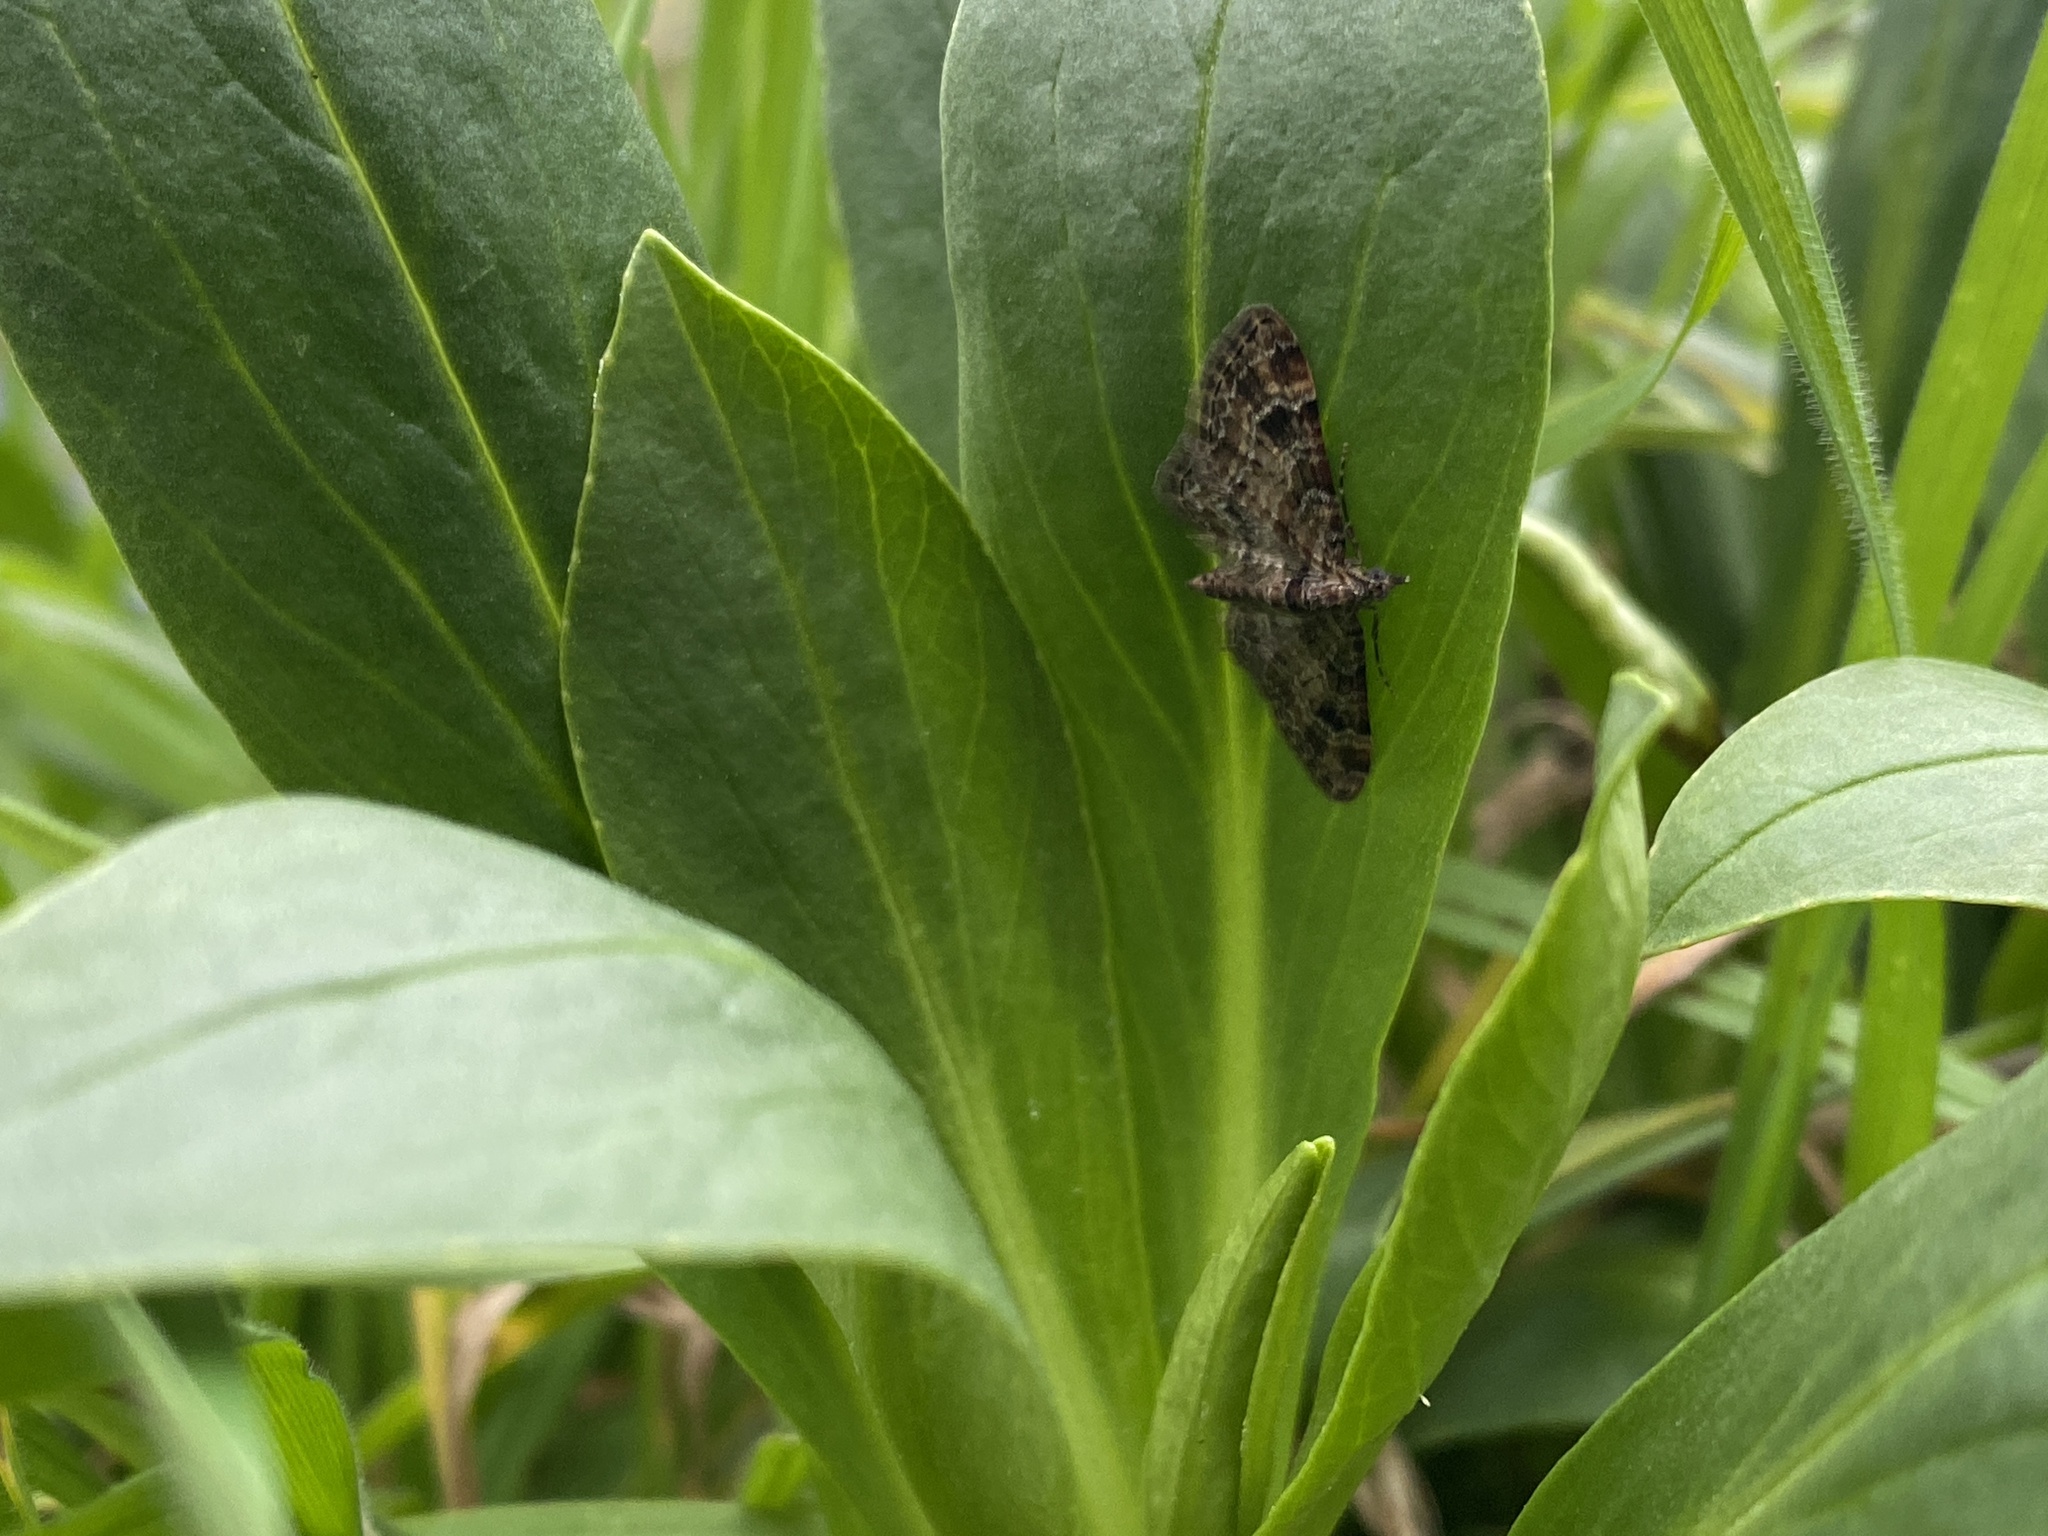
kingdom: Animalia
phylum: Arthropoda
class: Insecta
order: Lepidoptera
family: Geometridae
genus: Gymnoscelis
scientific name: Gymnoscelis rufifasciata
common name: Double-striped pug
